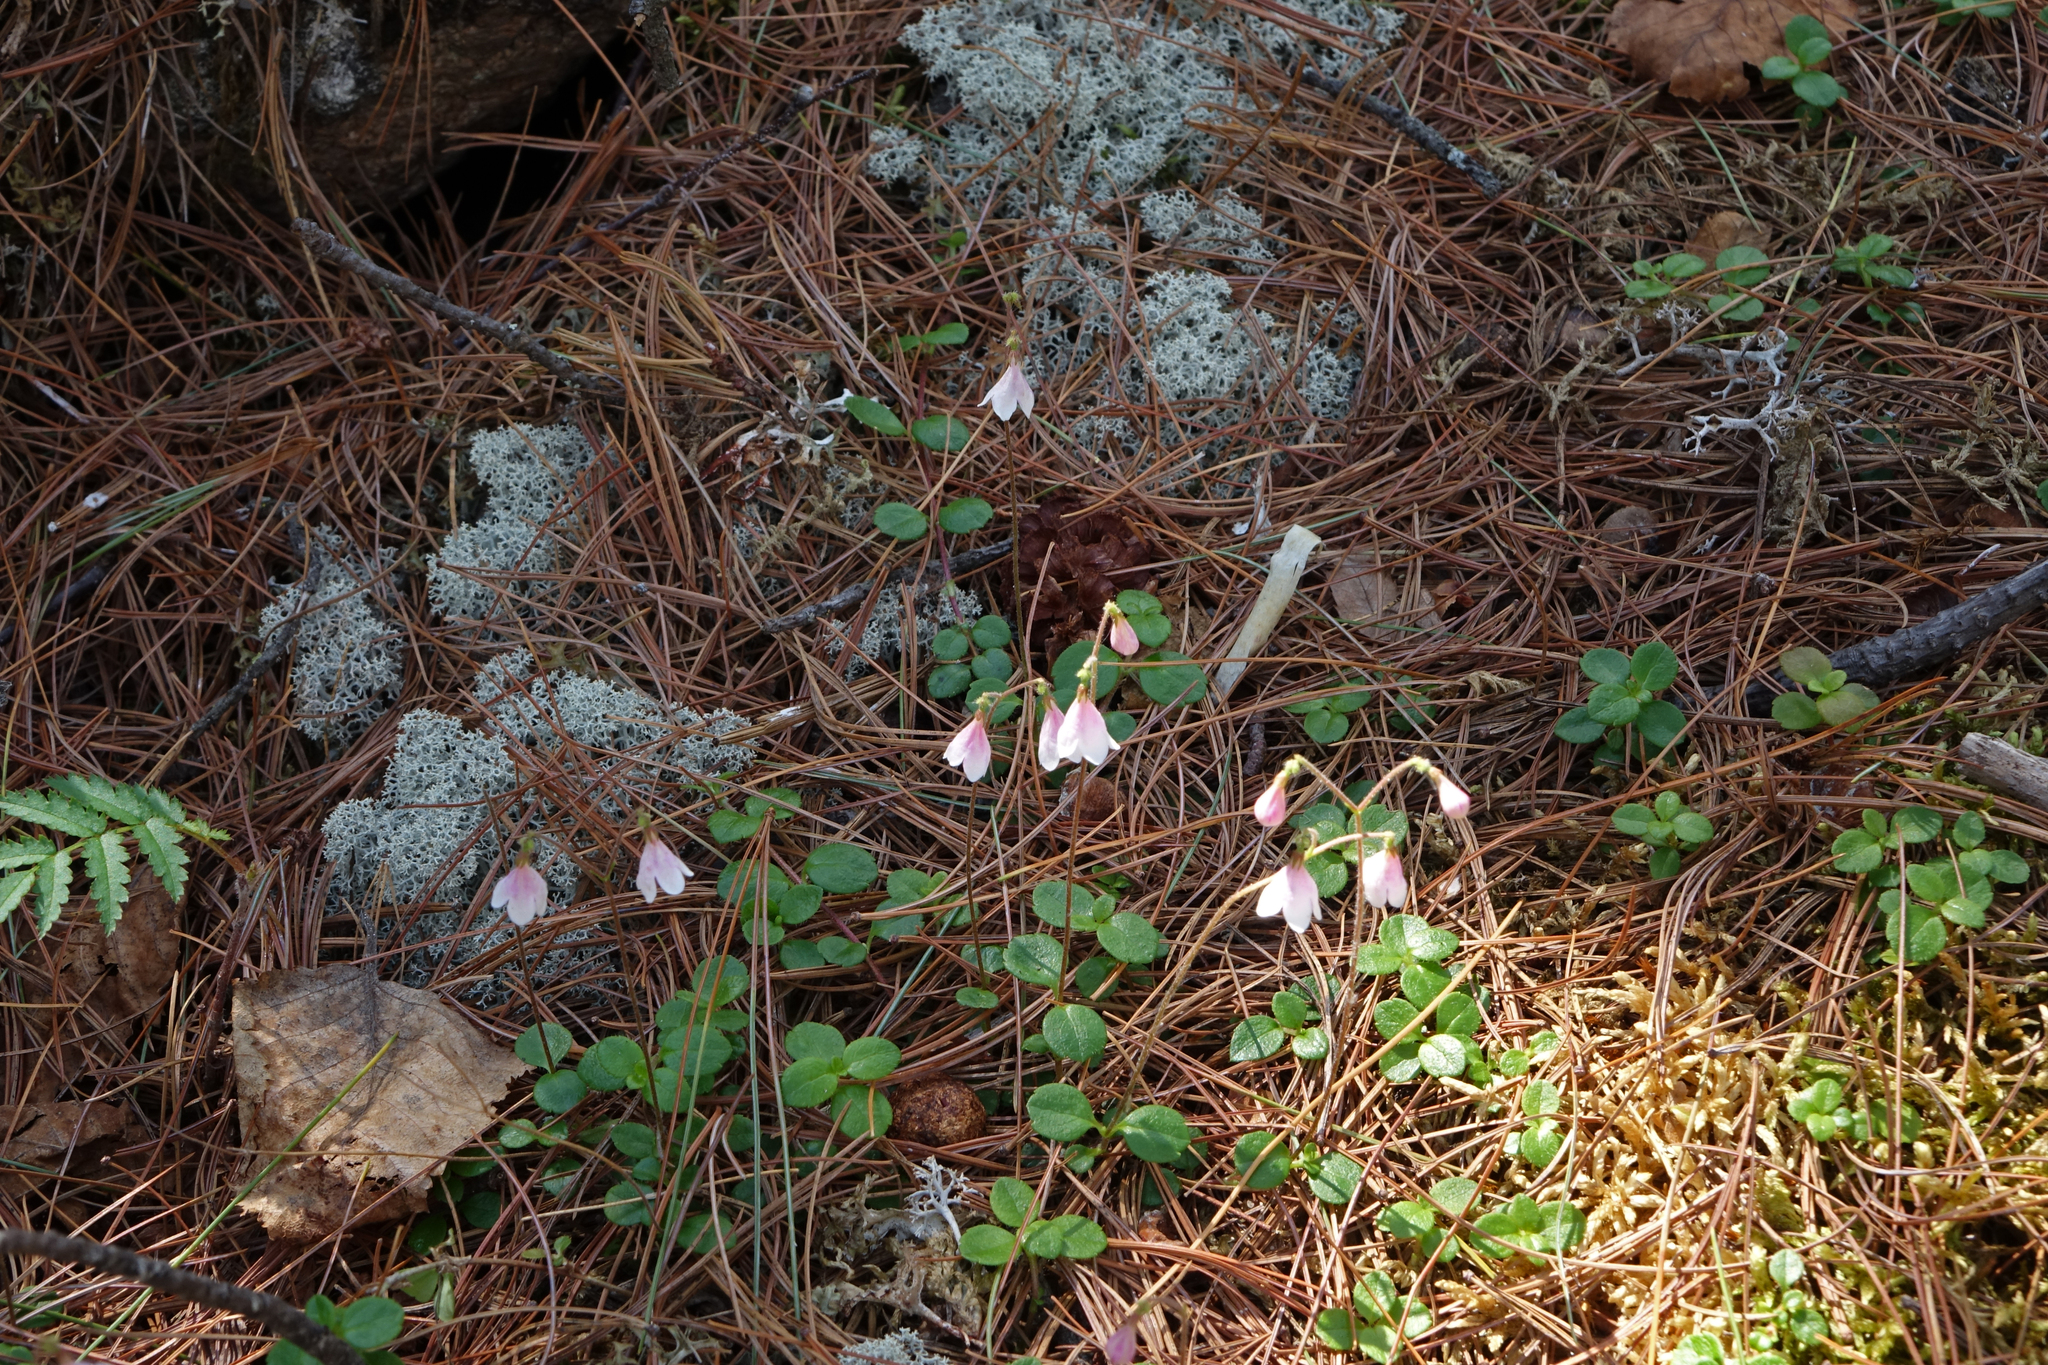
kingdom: Plantae
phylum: Tracheophyta
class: Magnoliopsida
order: Dipsacales
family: Caprifoliaceae
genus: Linnaea
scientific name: Linnaea borealis
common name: Twinflower
